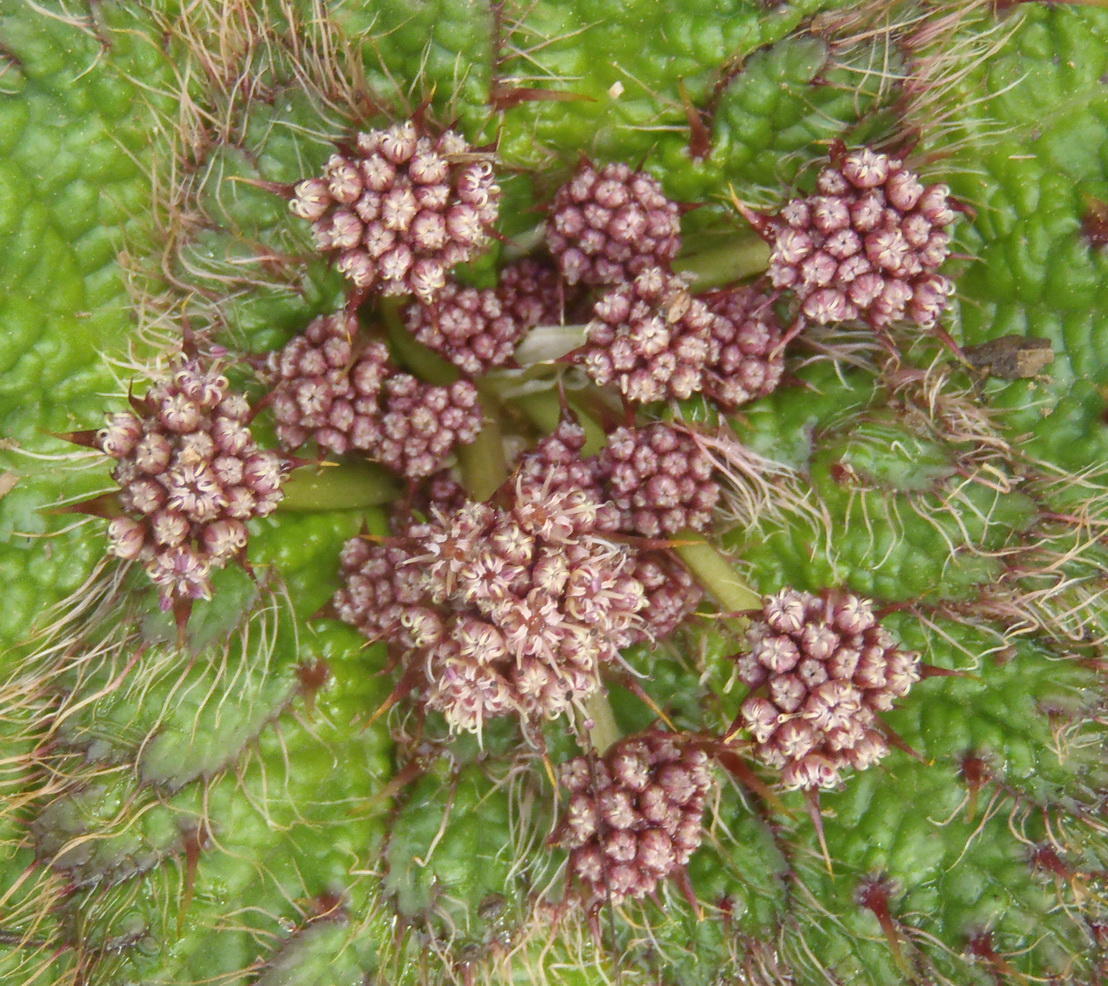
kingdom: Plantae
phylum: Tracheophyta
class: Magnoliopsida
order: Apiales
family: Apiaceae
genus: Arctopus
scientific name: Arctopus echinatus
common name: Platdoring
